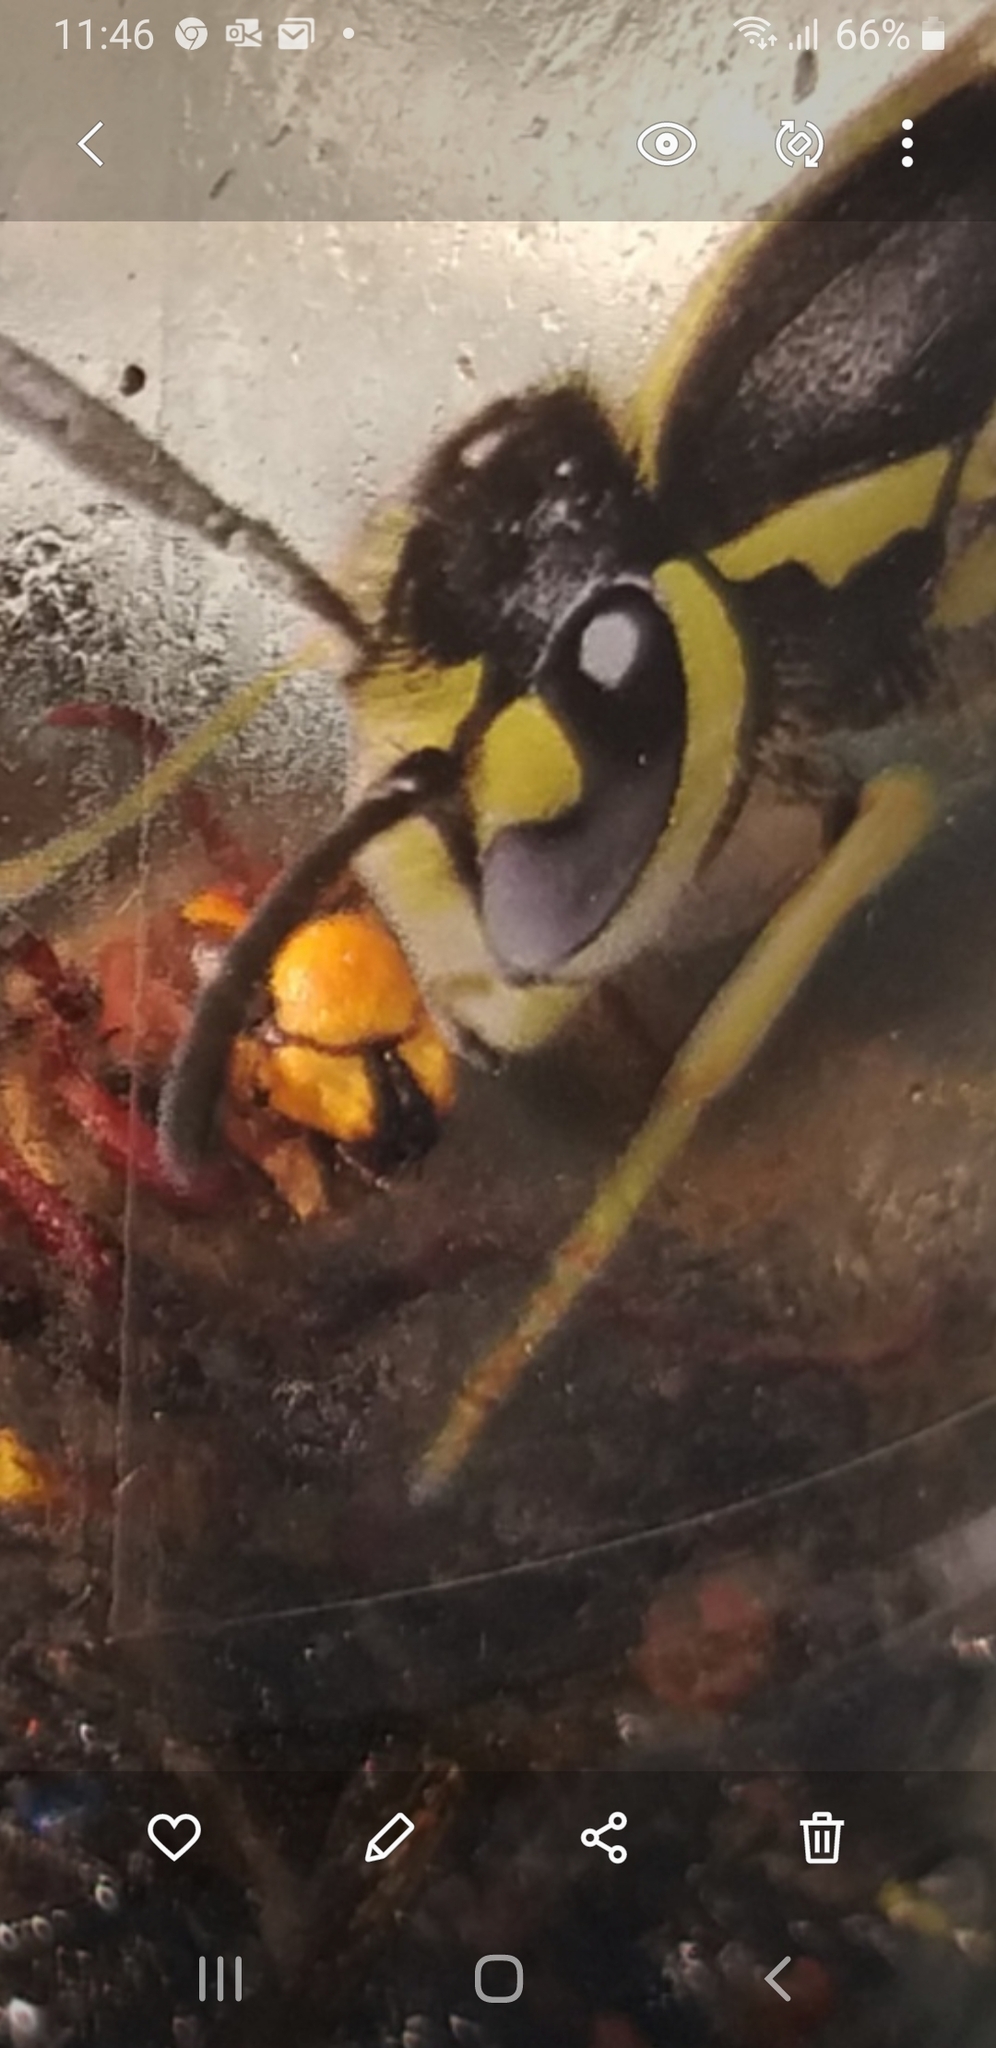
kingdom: Animalia
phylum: Arthropoda
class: Insecta
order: Hymenoptera
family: Vespidae
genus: Vespa
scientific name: Vespa crabro
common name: Hornet
